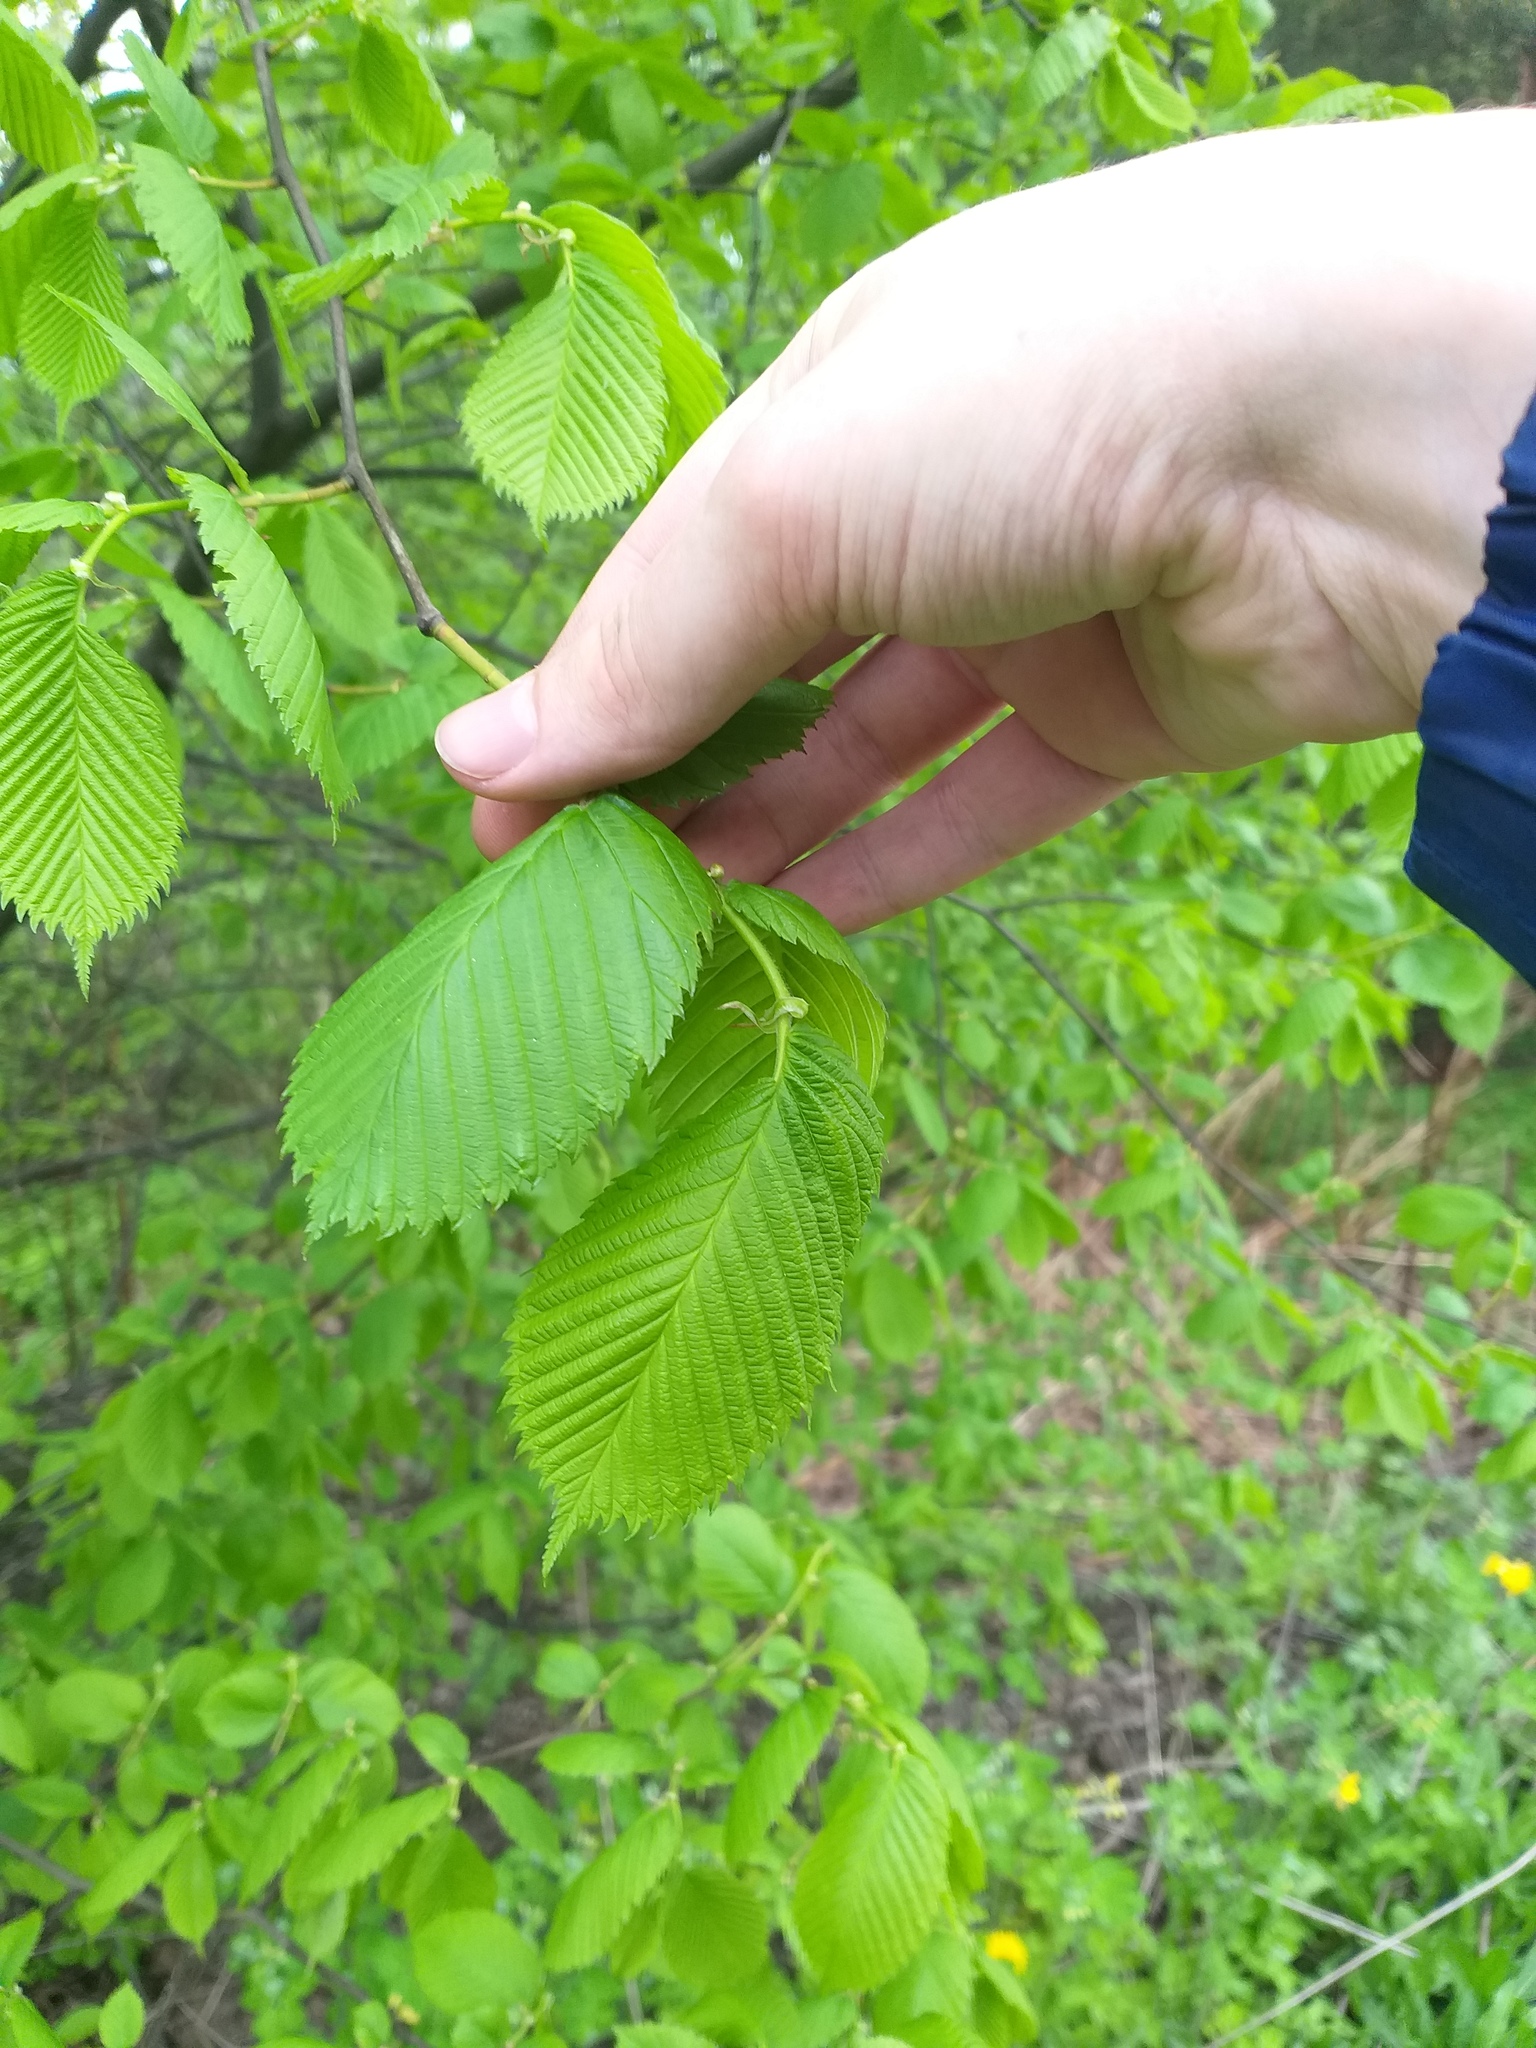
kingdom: Plantae
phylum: Tracheophyta
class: Magnoliopsida
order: Rosales
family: Ulmaceae
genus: Ulmus
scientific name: Ulmus laevis
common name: European white-elm
